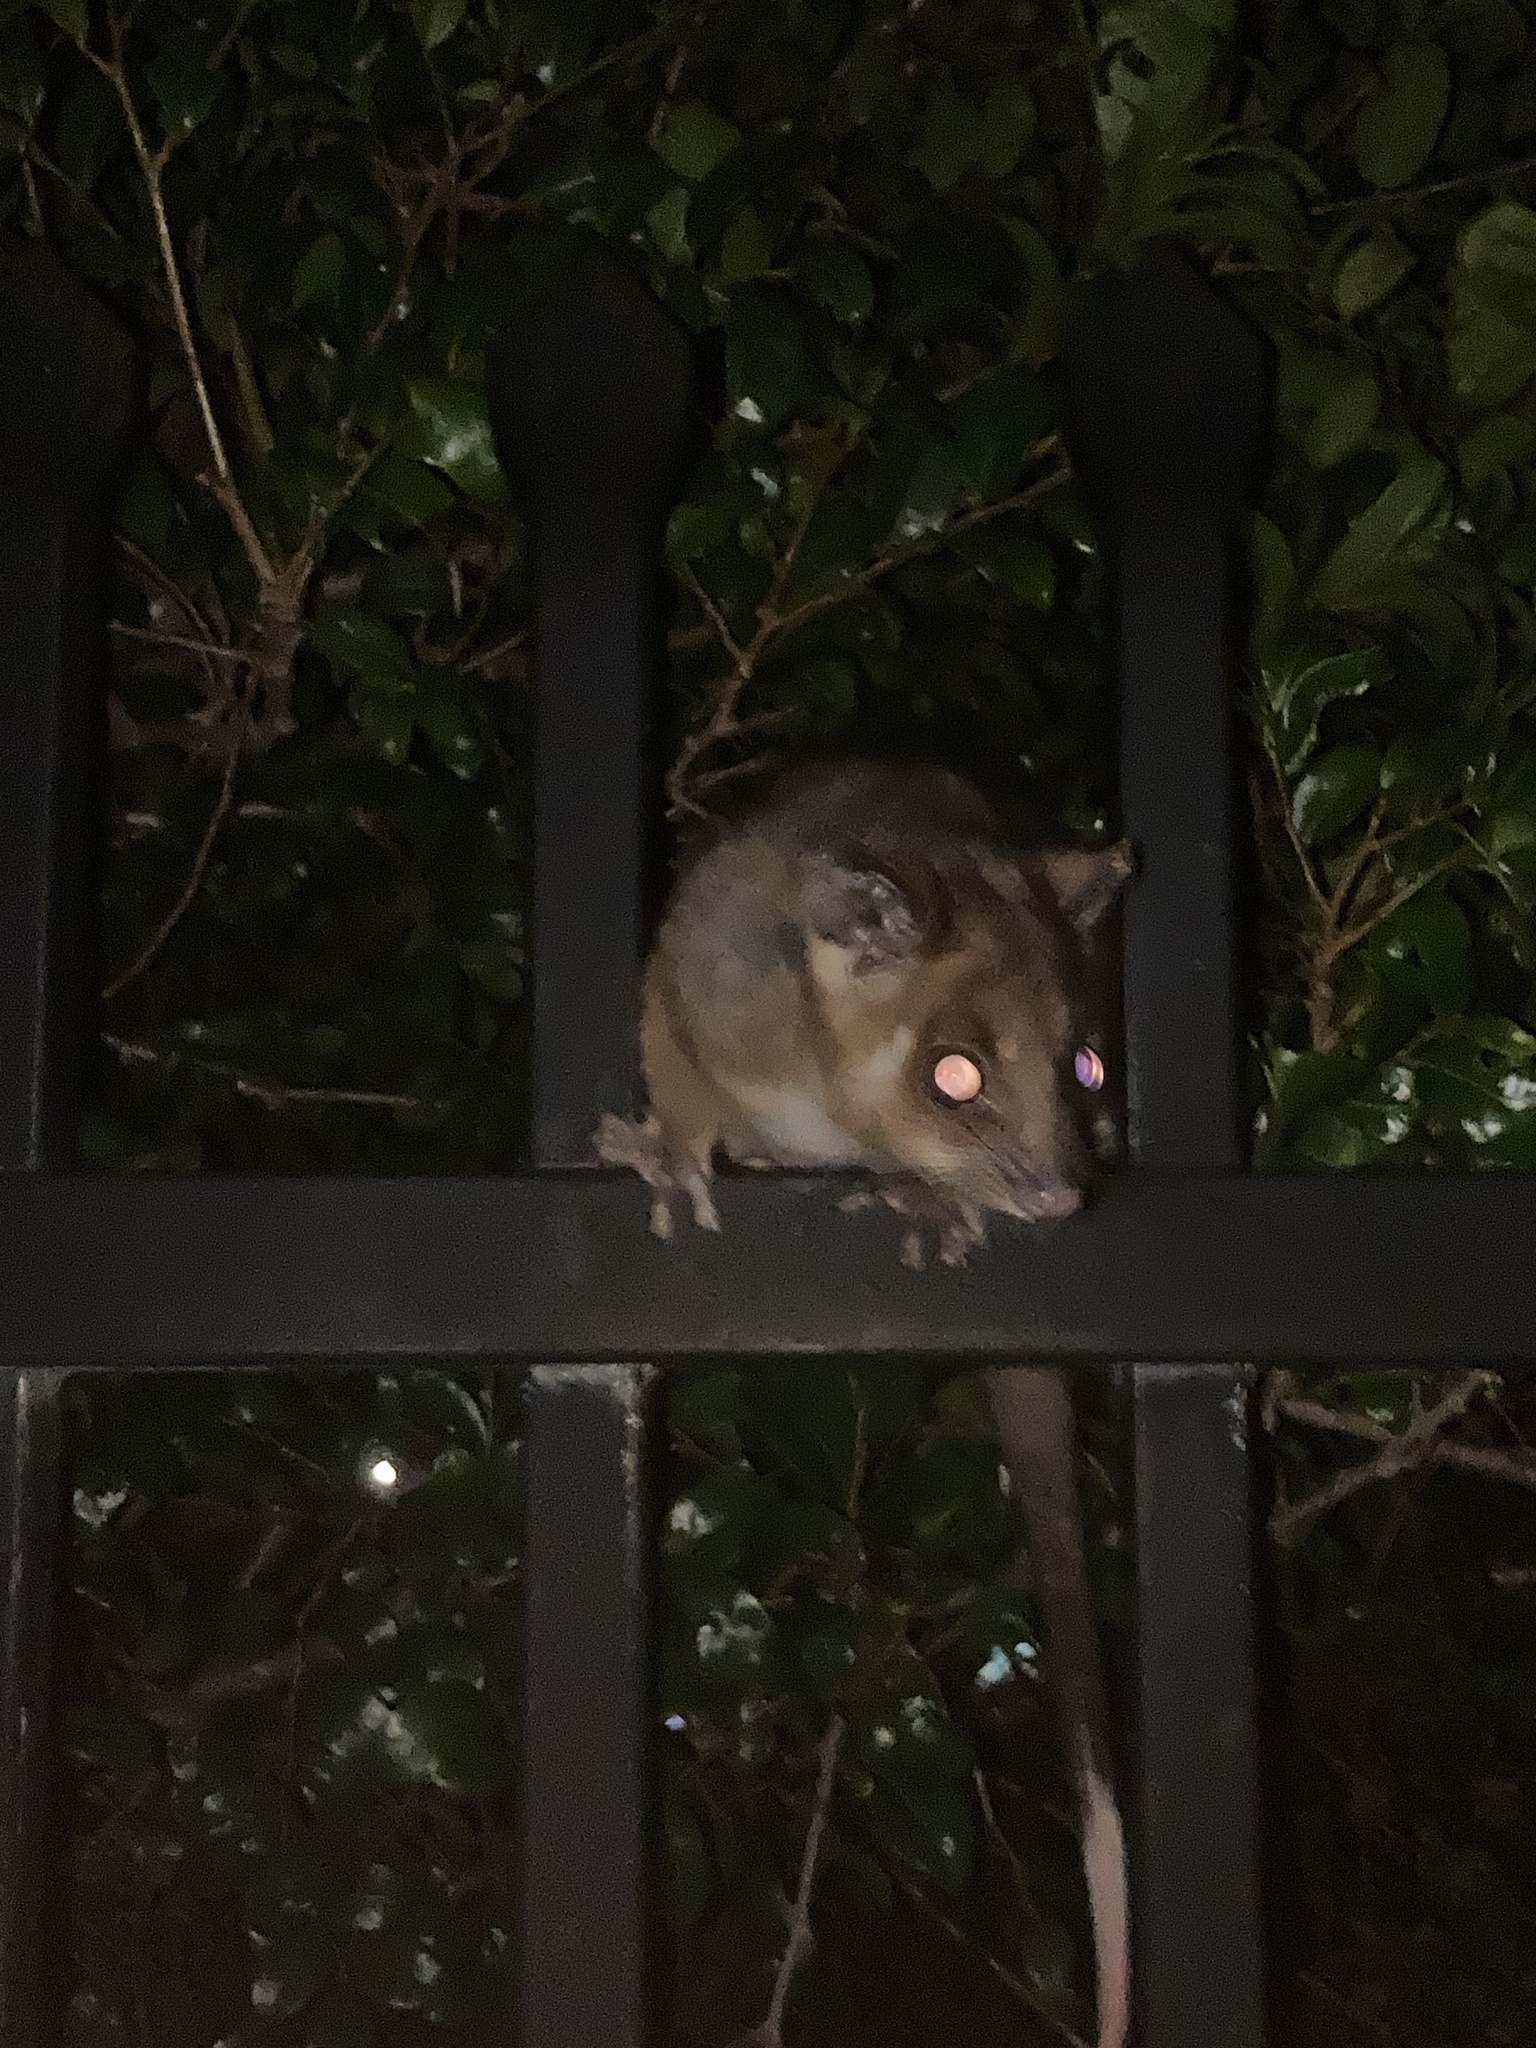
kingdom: Animalia
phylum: Chordata
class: Mammalia
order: Diprotodontia
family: Pseudocheiridae
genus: Pseudocheirus
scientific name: Pseudocheirus peregrinus
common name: Common ringtail possum
